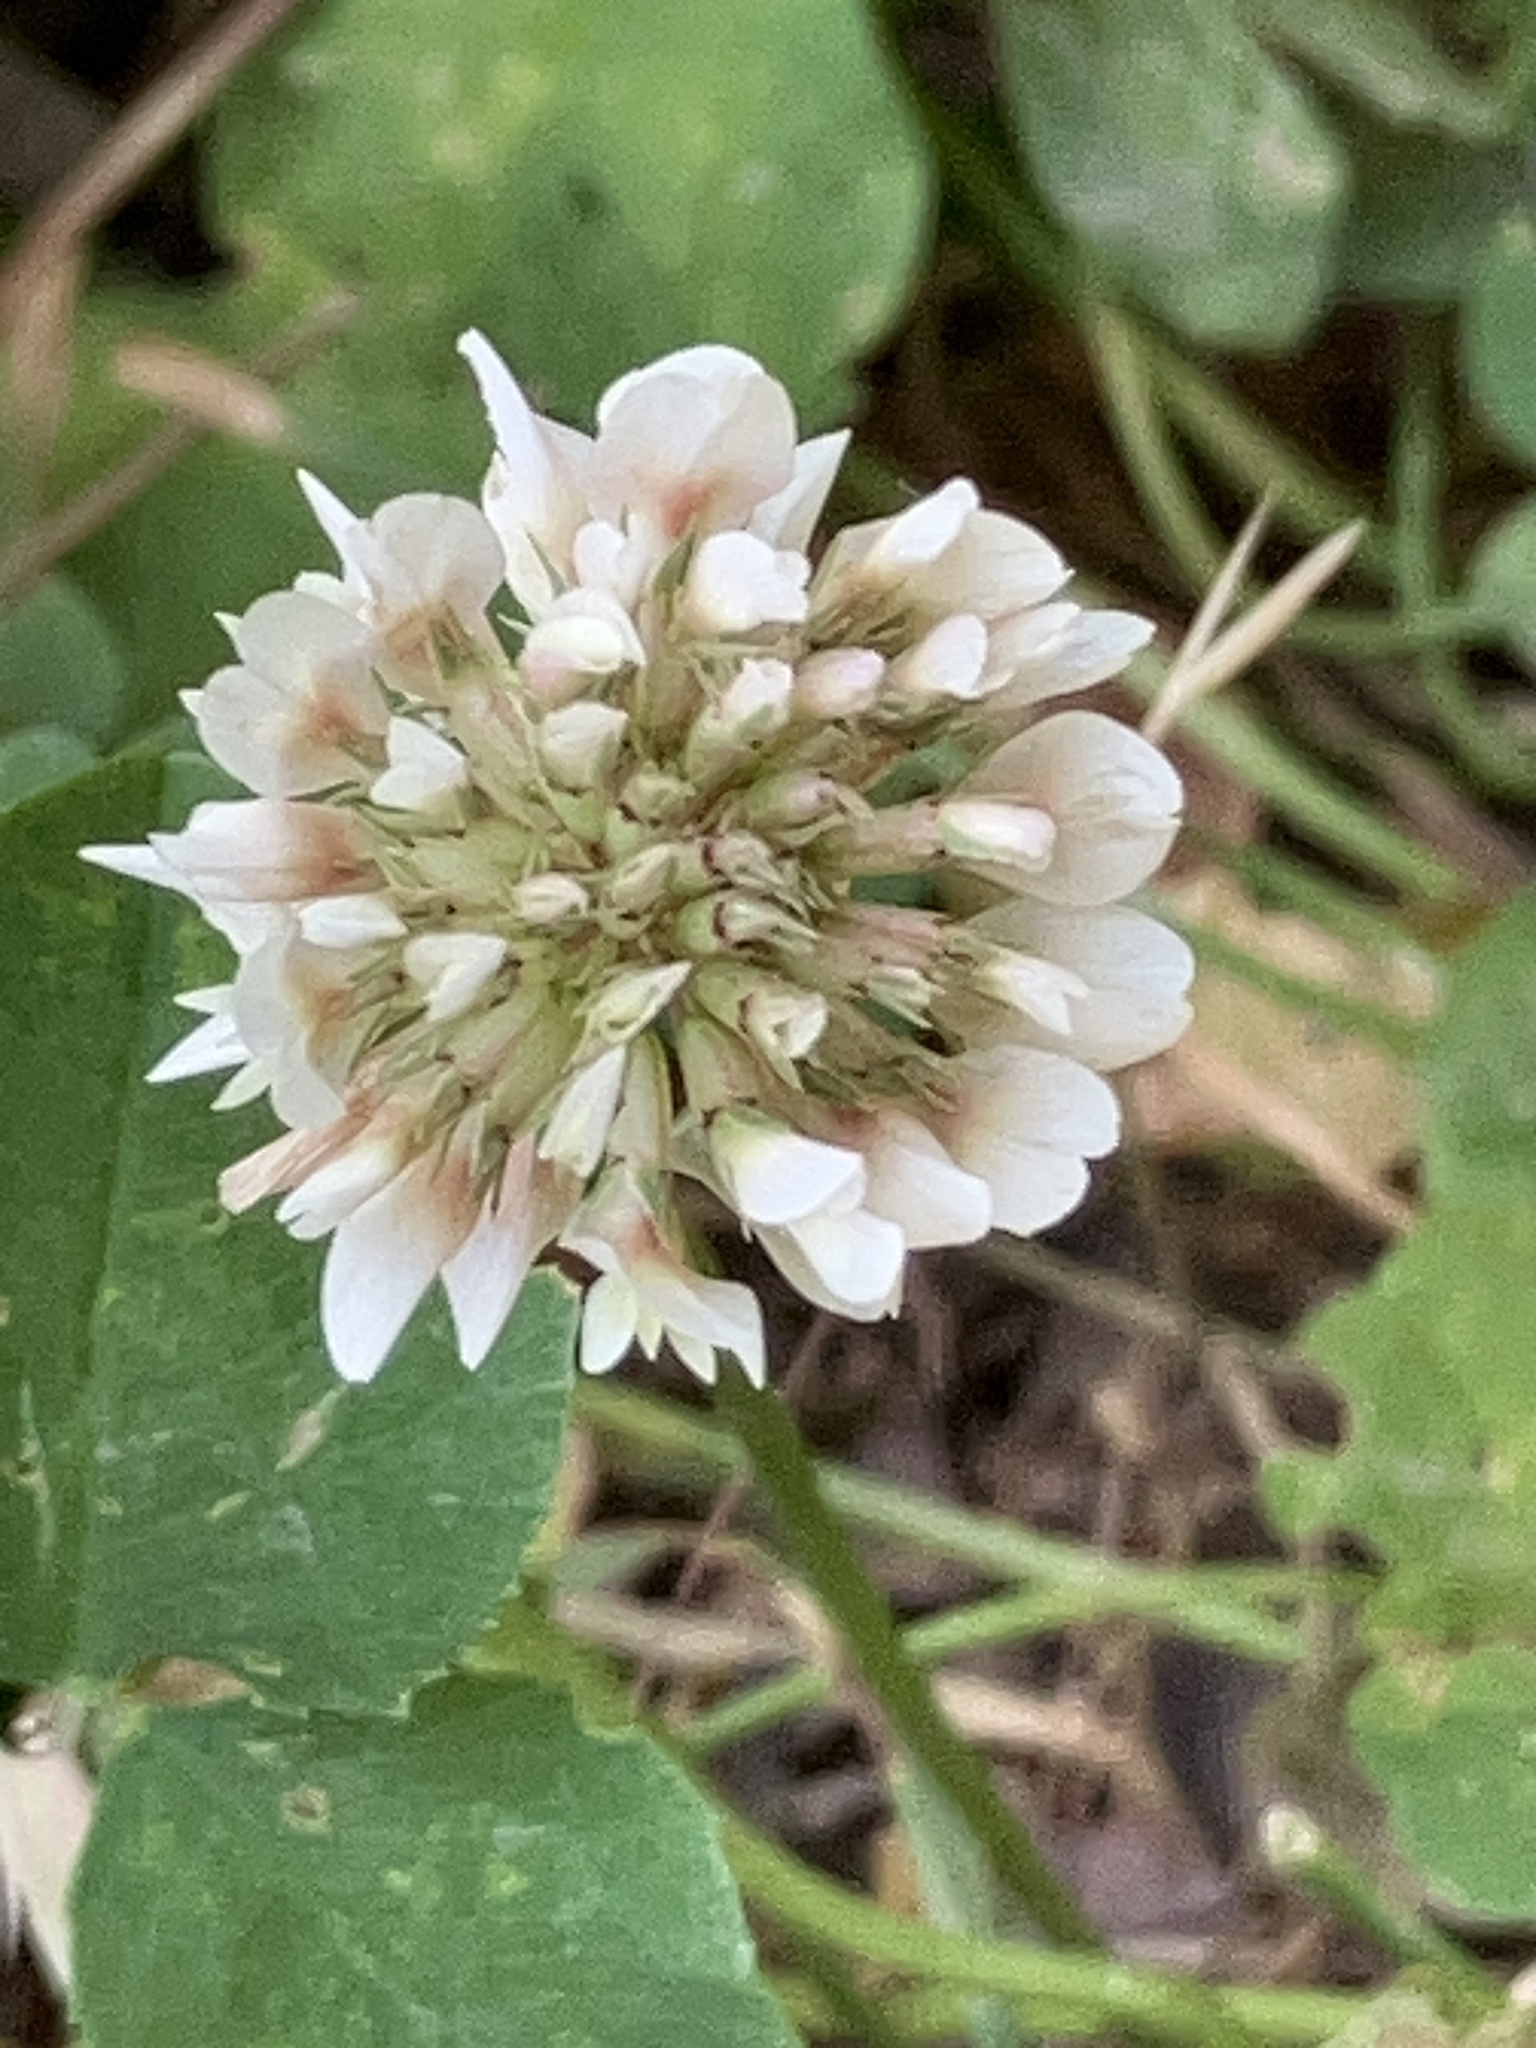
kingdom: Plantae
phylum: Tracheophyta
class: Magnoliopsida
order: Fabales
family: Fabaceae
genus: Trifolium
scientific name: Trifolium repens
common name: White clover
